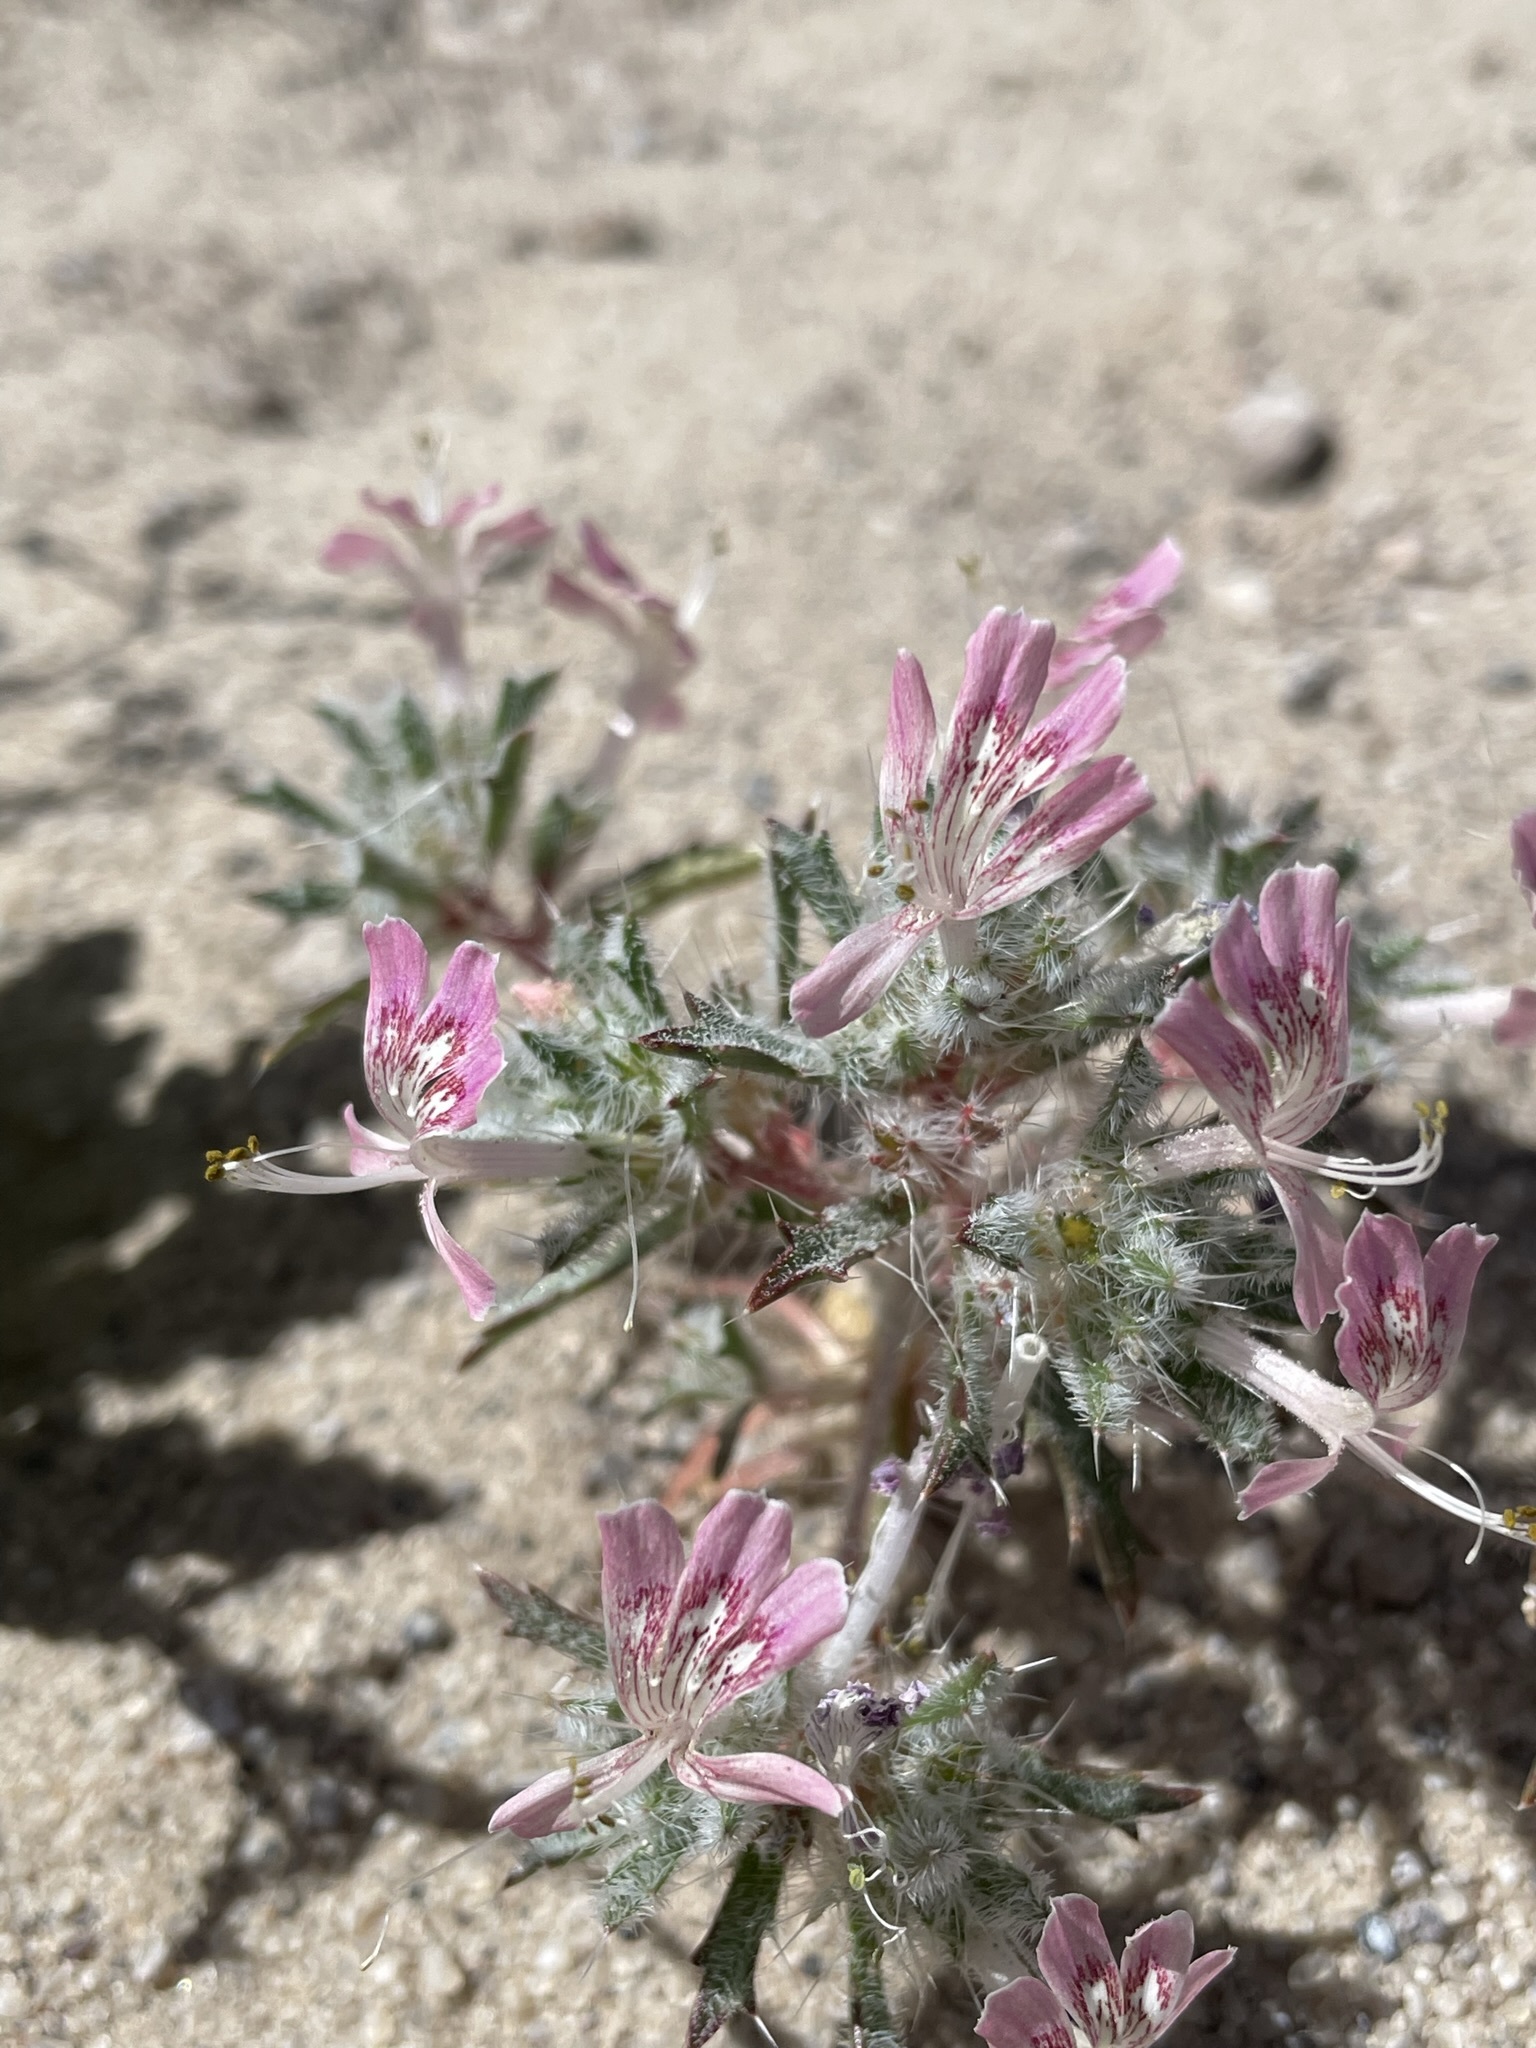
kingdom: Plantae
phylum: Tracheophyta
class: Magnoliopsida
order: Ericales
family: Polemoniaceae
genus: Loeseliastrum
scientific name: Loeseliastrum matthewsii
